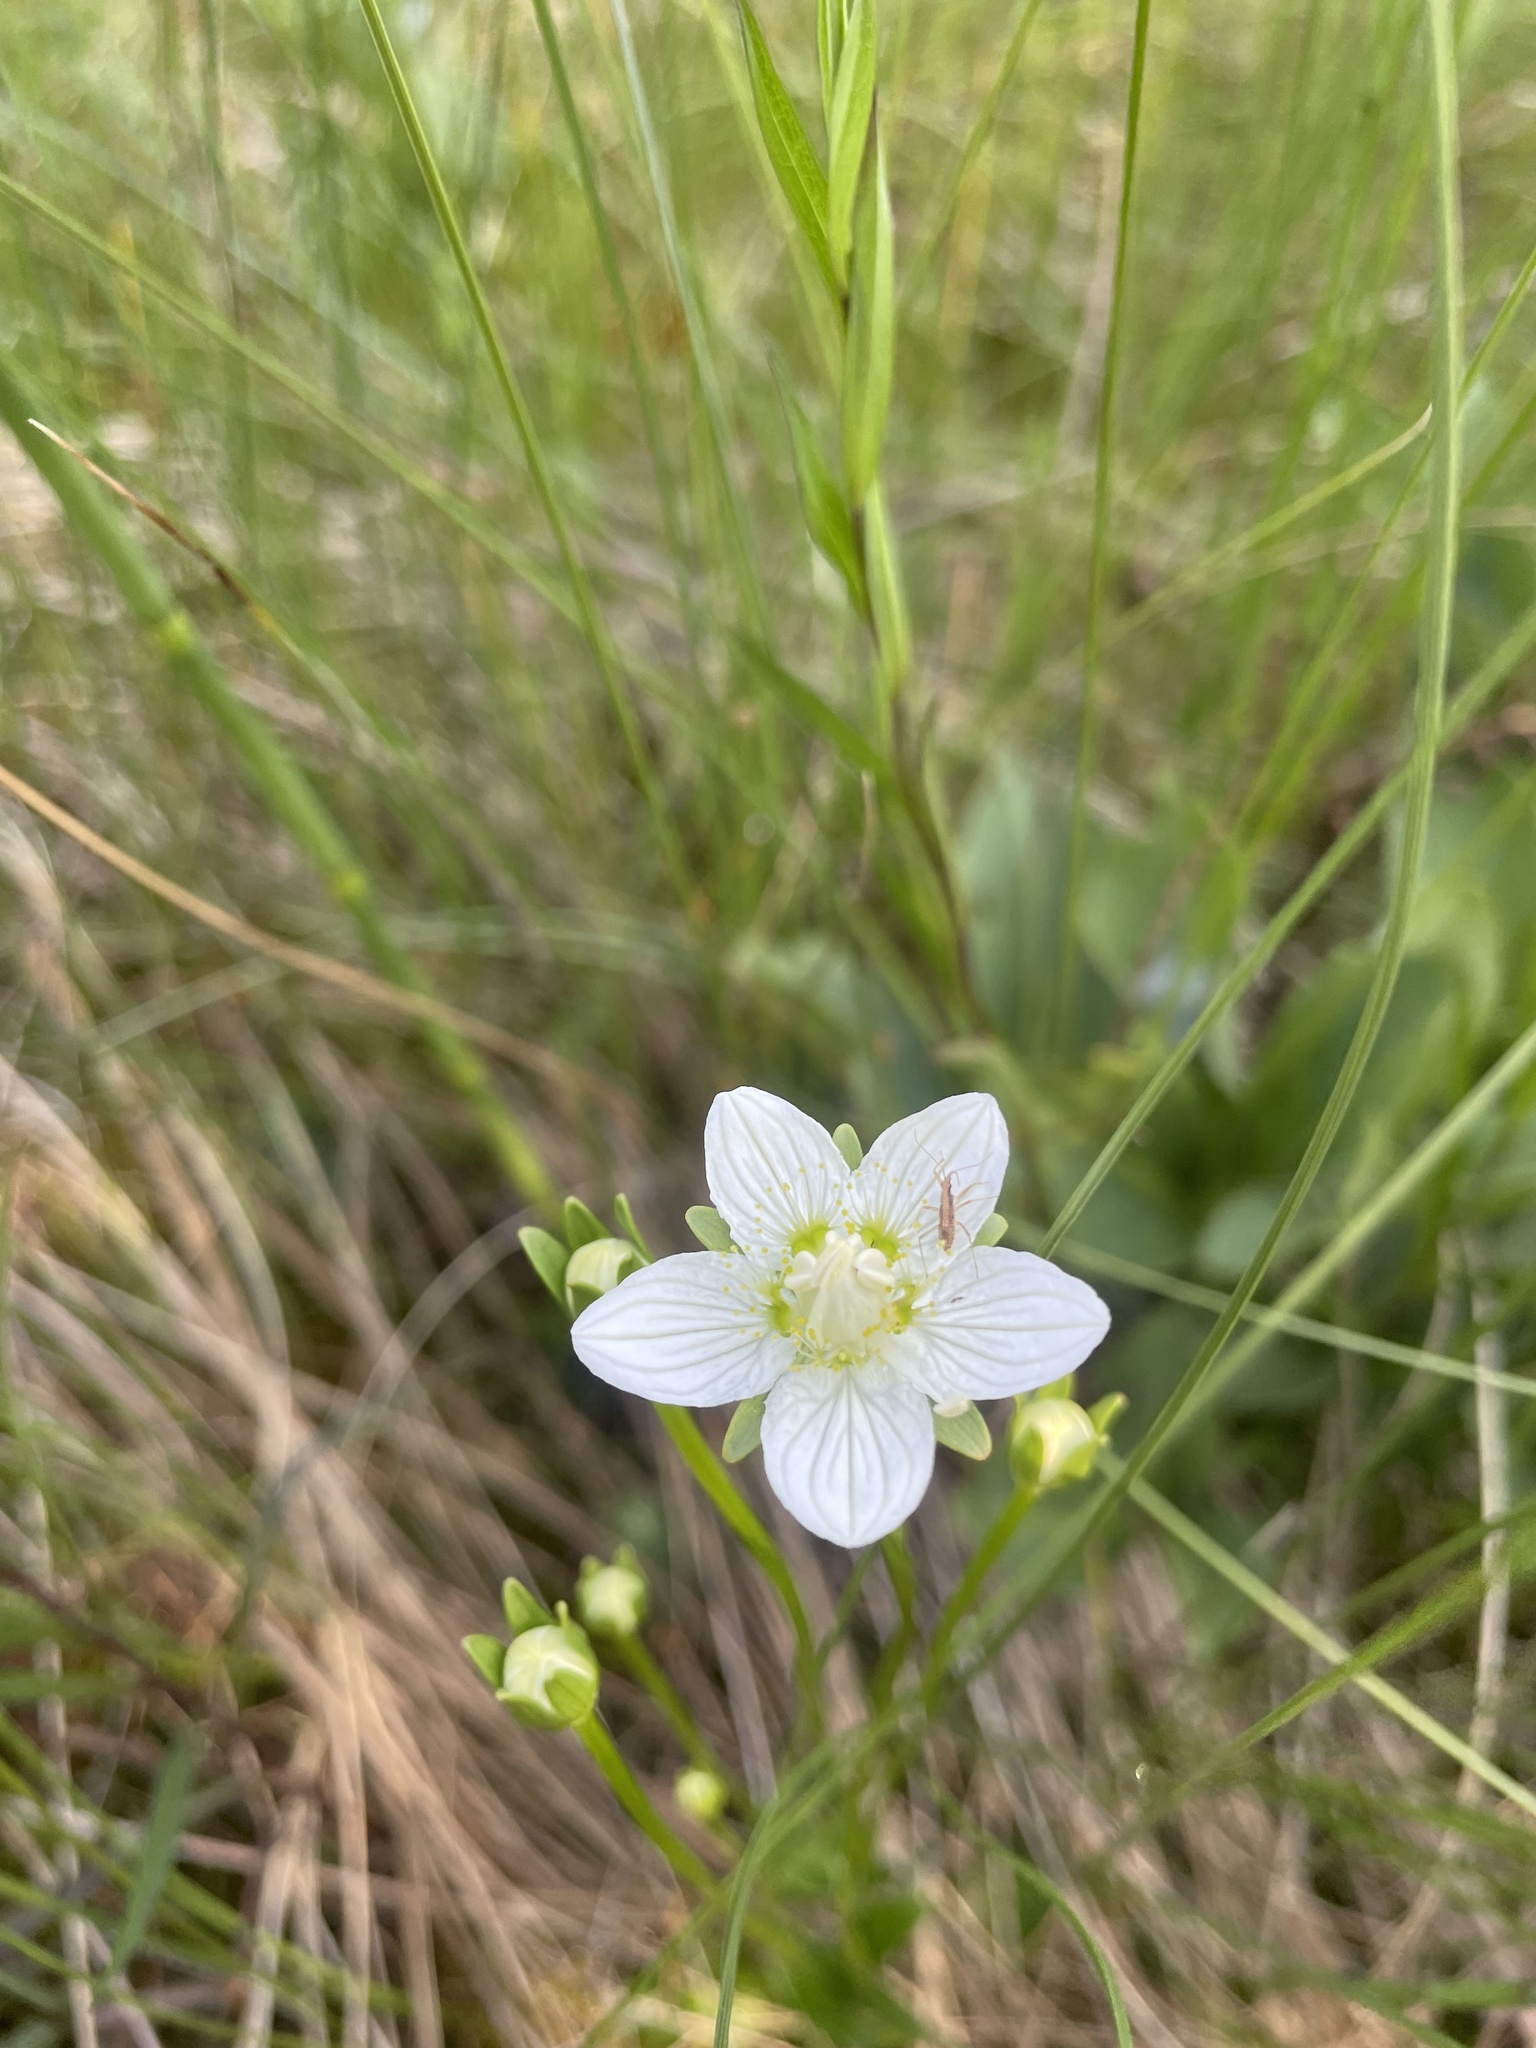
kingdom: Plantae
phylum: Tracheophyta
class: Magnoliopsida
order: Celastrales
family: Parnassiaceae
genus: Parnassia
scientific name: Parnassia palustris
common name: Grass-of-parnassus
